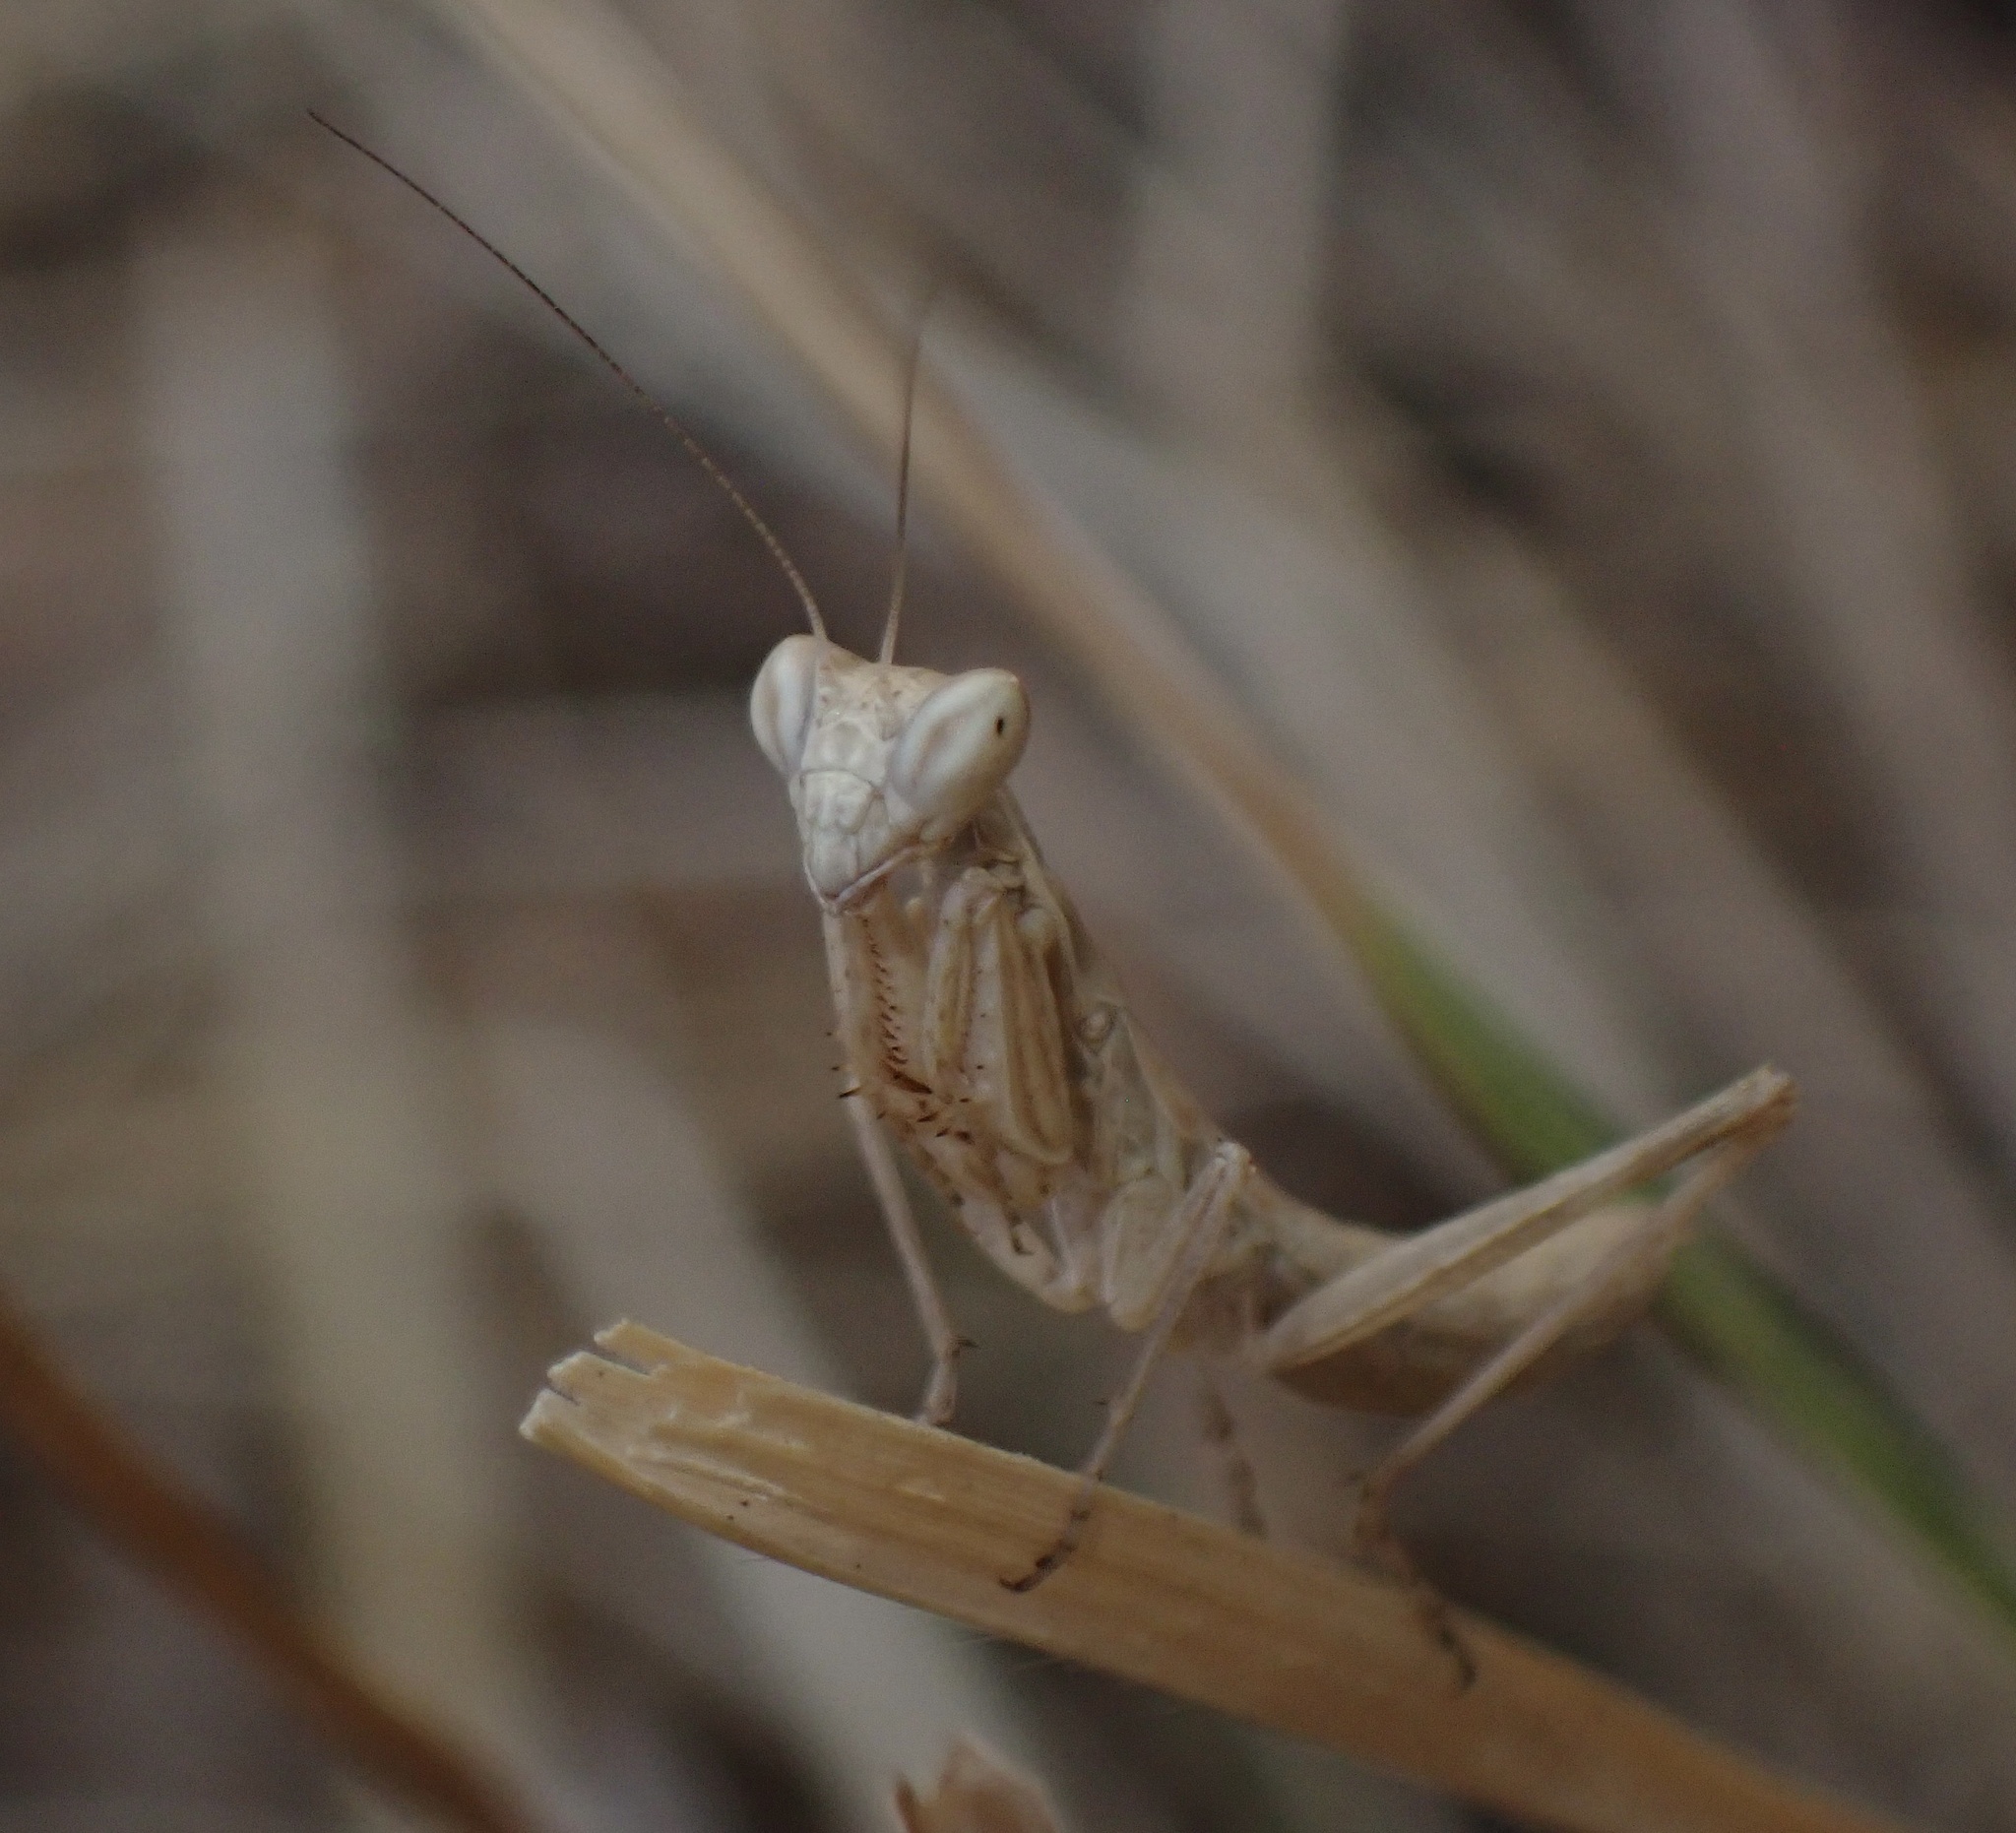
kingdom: Animalia
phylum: Arthropoda
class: Insecta
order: Mantodea
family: Amelidae
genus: Ameles
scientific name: Ameles decolor
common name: Dwarf mantis
